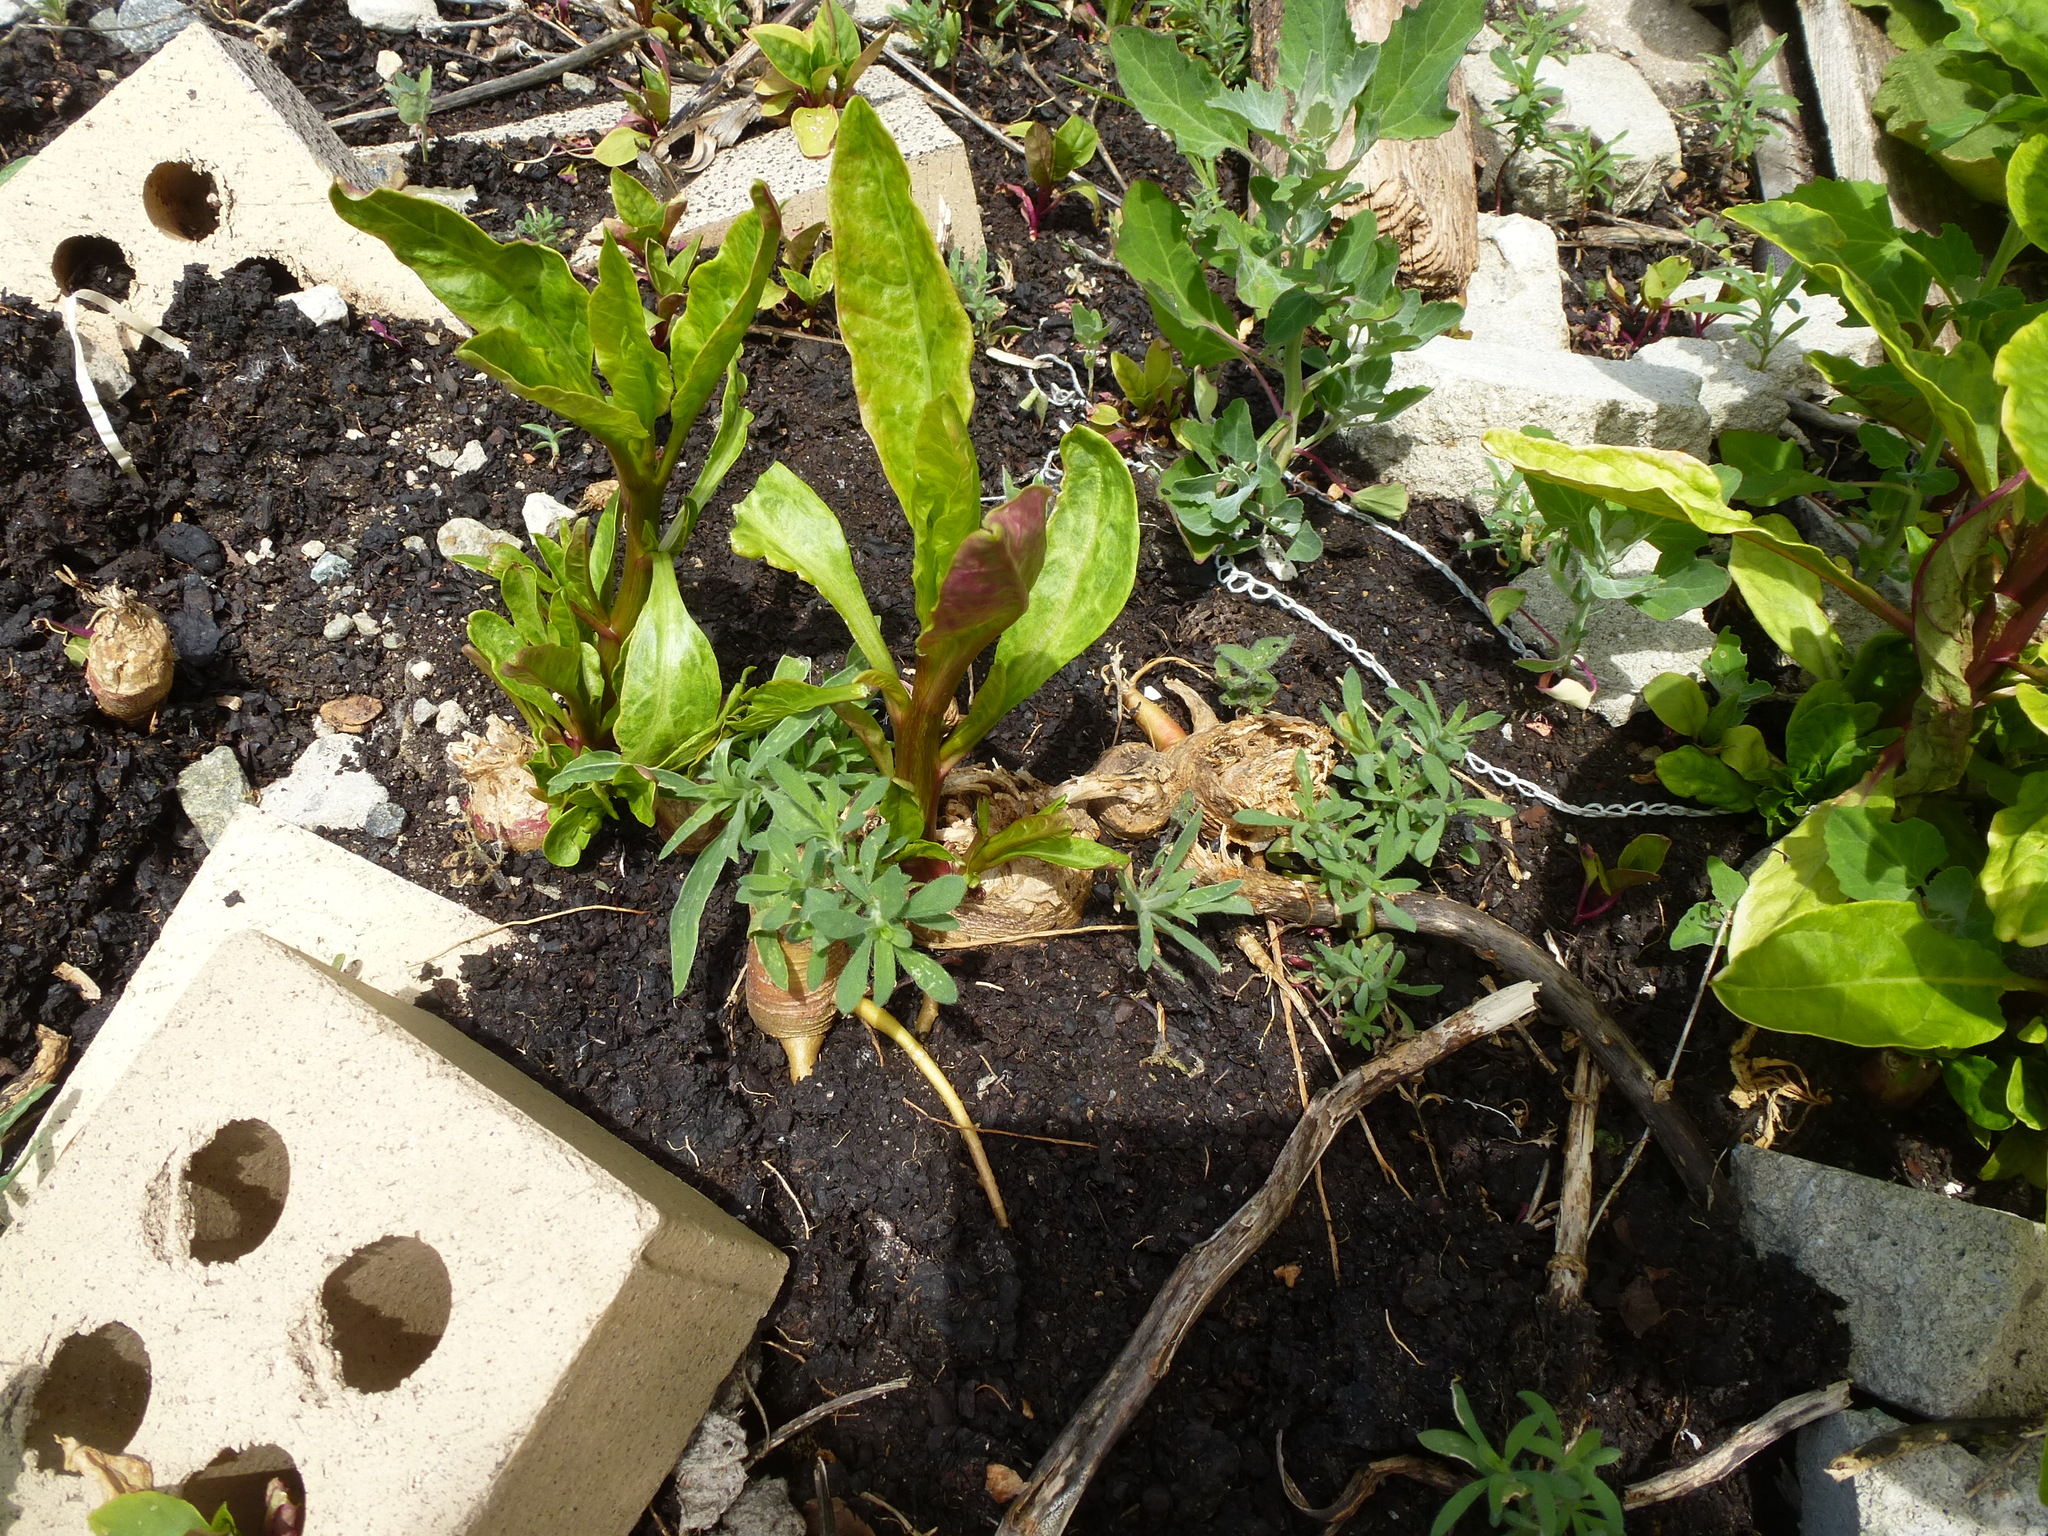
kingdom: Plantae
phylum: Tracheophyta
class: Magnoliopsida
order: Caryophyllales
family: Phytolaccaceae
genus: Phytolacca
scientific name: Phytolacca americana
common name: American pokeweed
